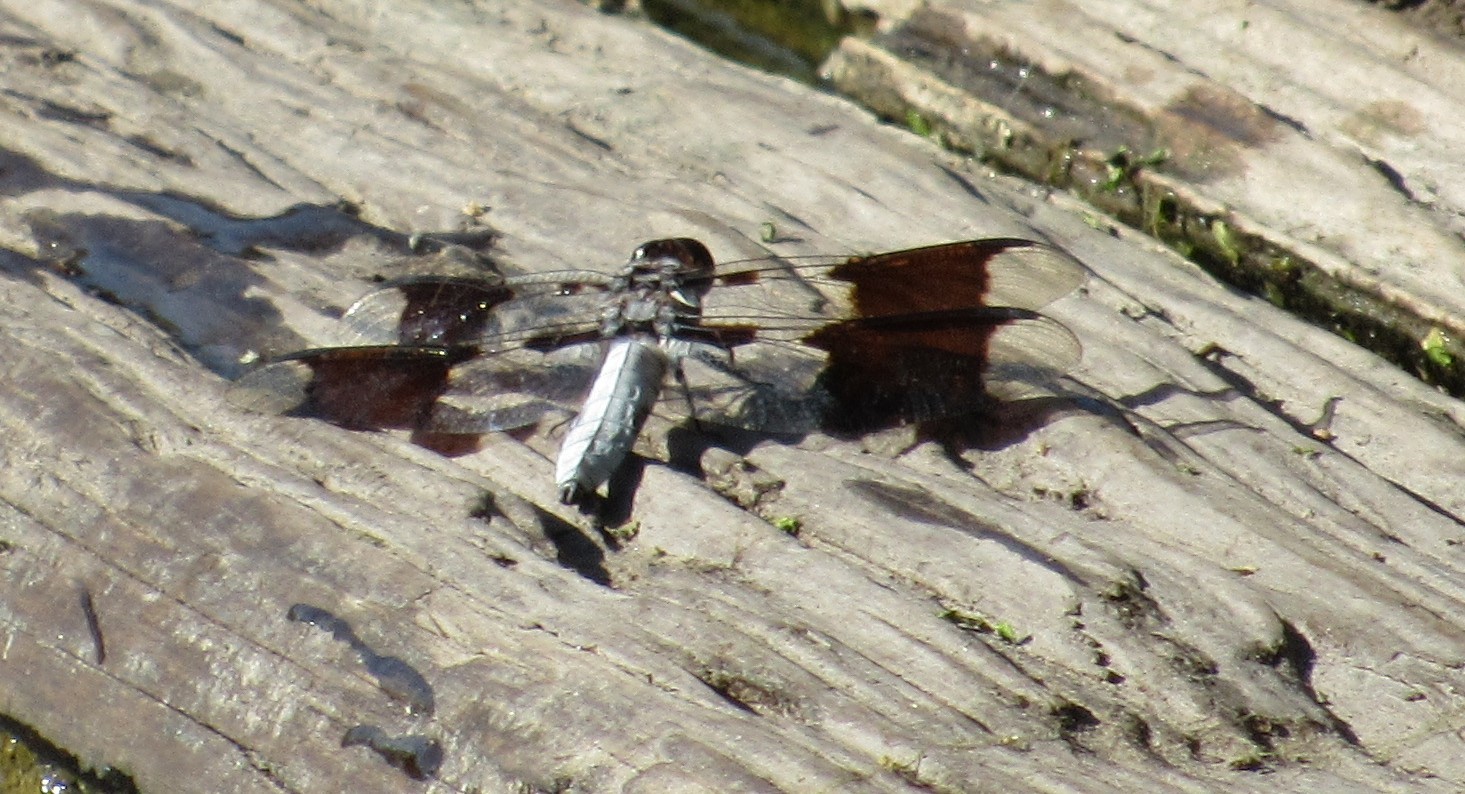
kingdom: Animalia
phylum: Arthropoda
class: Insecta
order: Odonata
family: Libellulidae
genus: Plathemis
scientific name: Plathemis lydia
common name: Common whitetail
